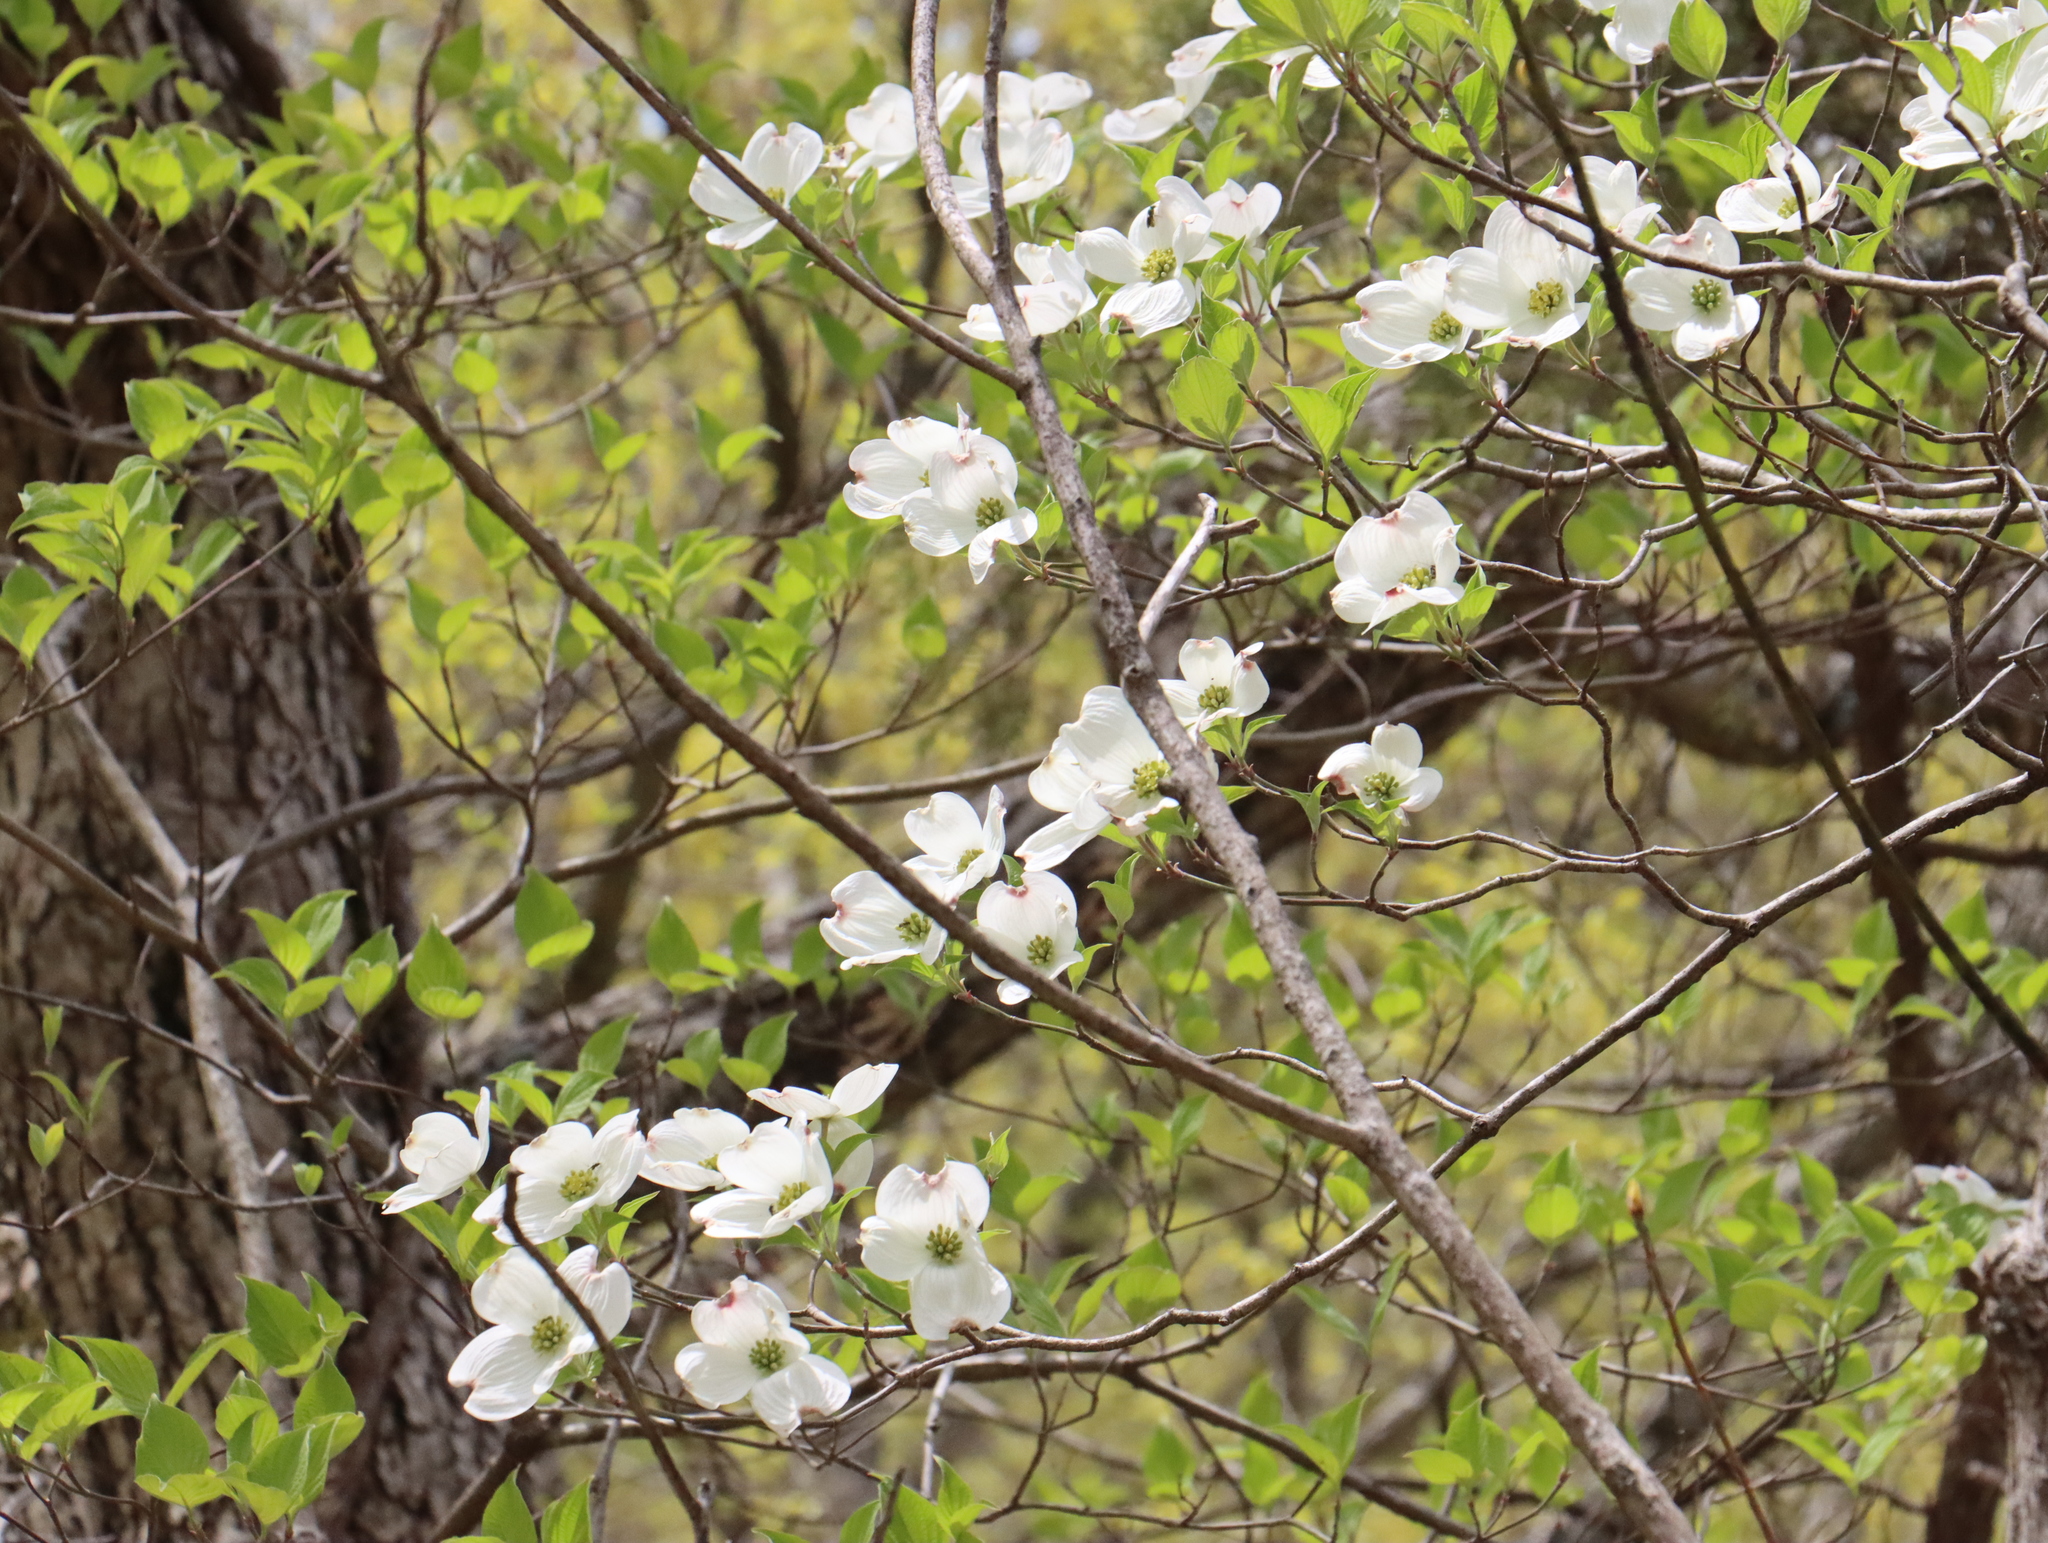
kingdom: Plantae
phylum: Tracheophyta
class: Magnoliopsida
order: Cornales
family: Cornaceae
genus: Cornus
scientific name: Cornus florida
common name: Flowering dogwood
